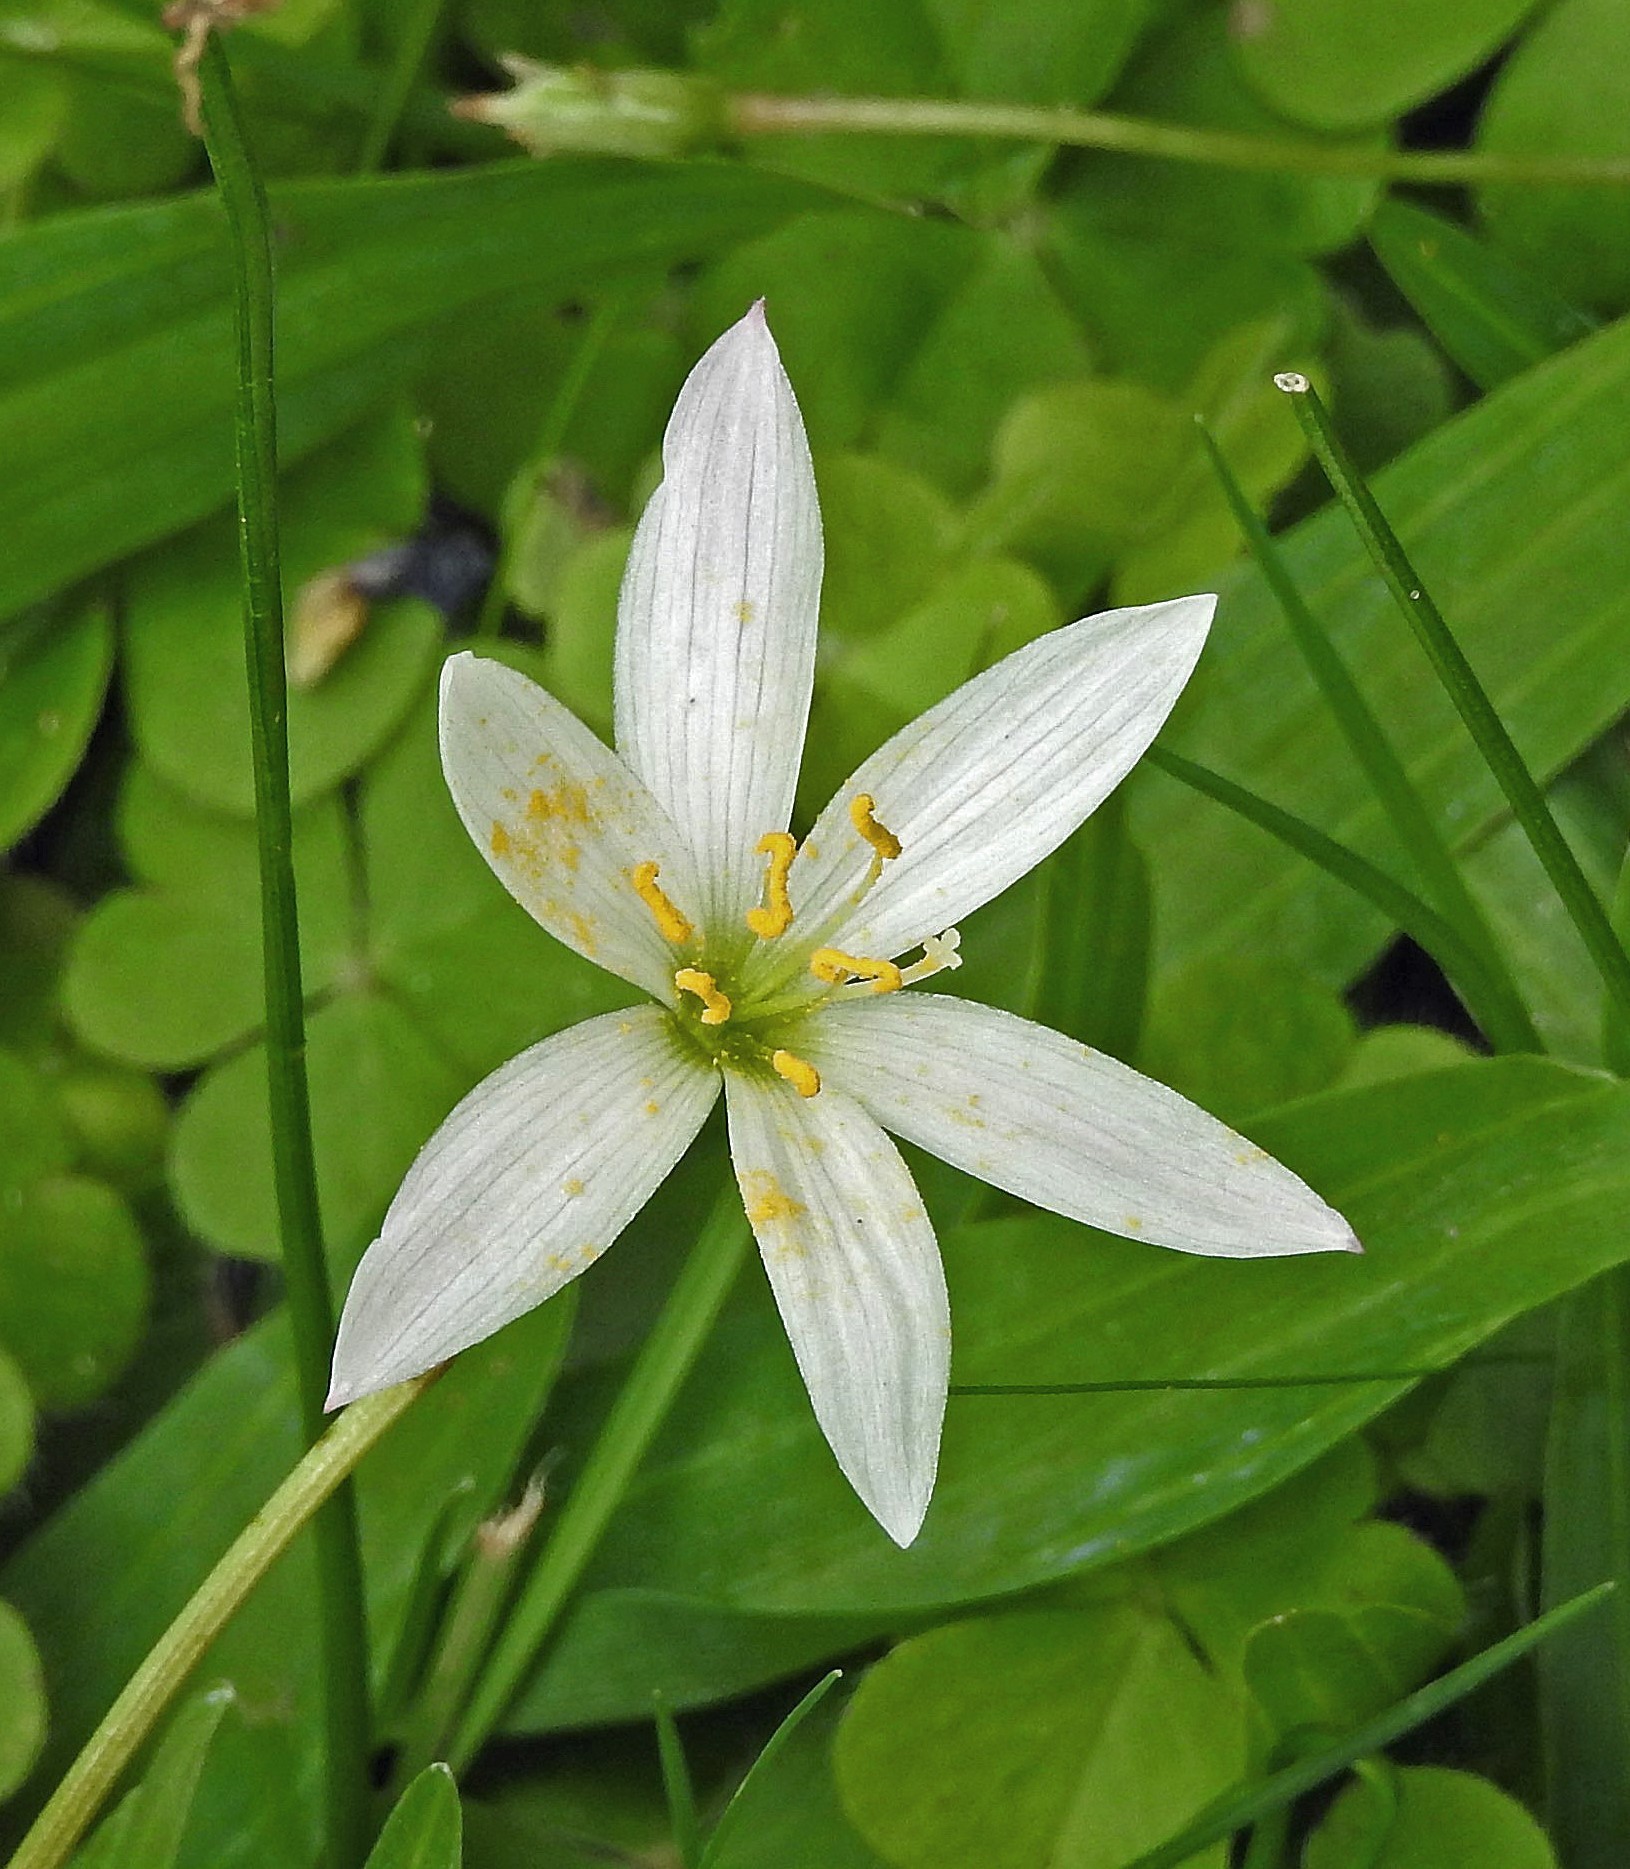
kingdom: Plantae
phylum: Tracheophyta
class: Liliopsida
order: Asparagales
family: Amaryllidaceae
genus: Zephyranthes
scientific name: Zephyranthes candida
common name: Autumn zephyrlily
